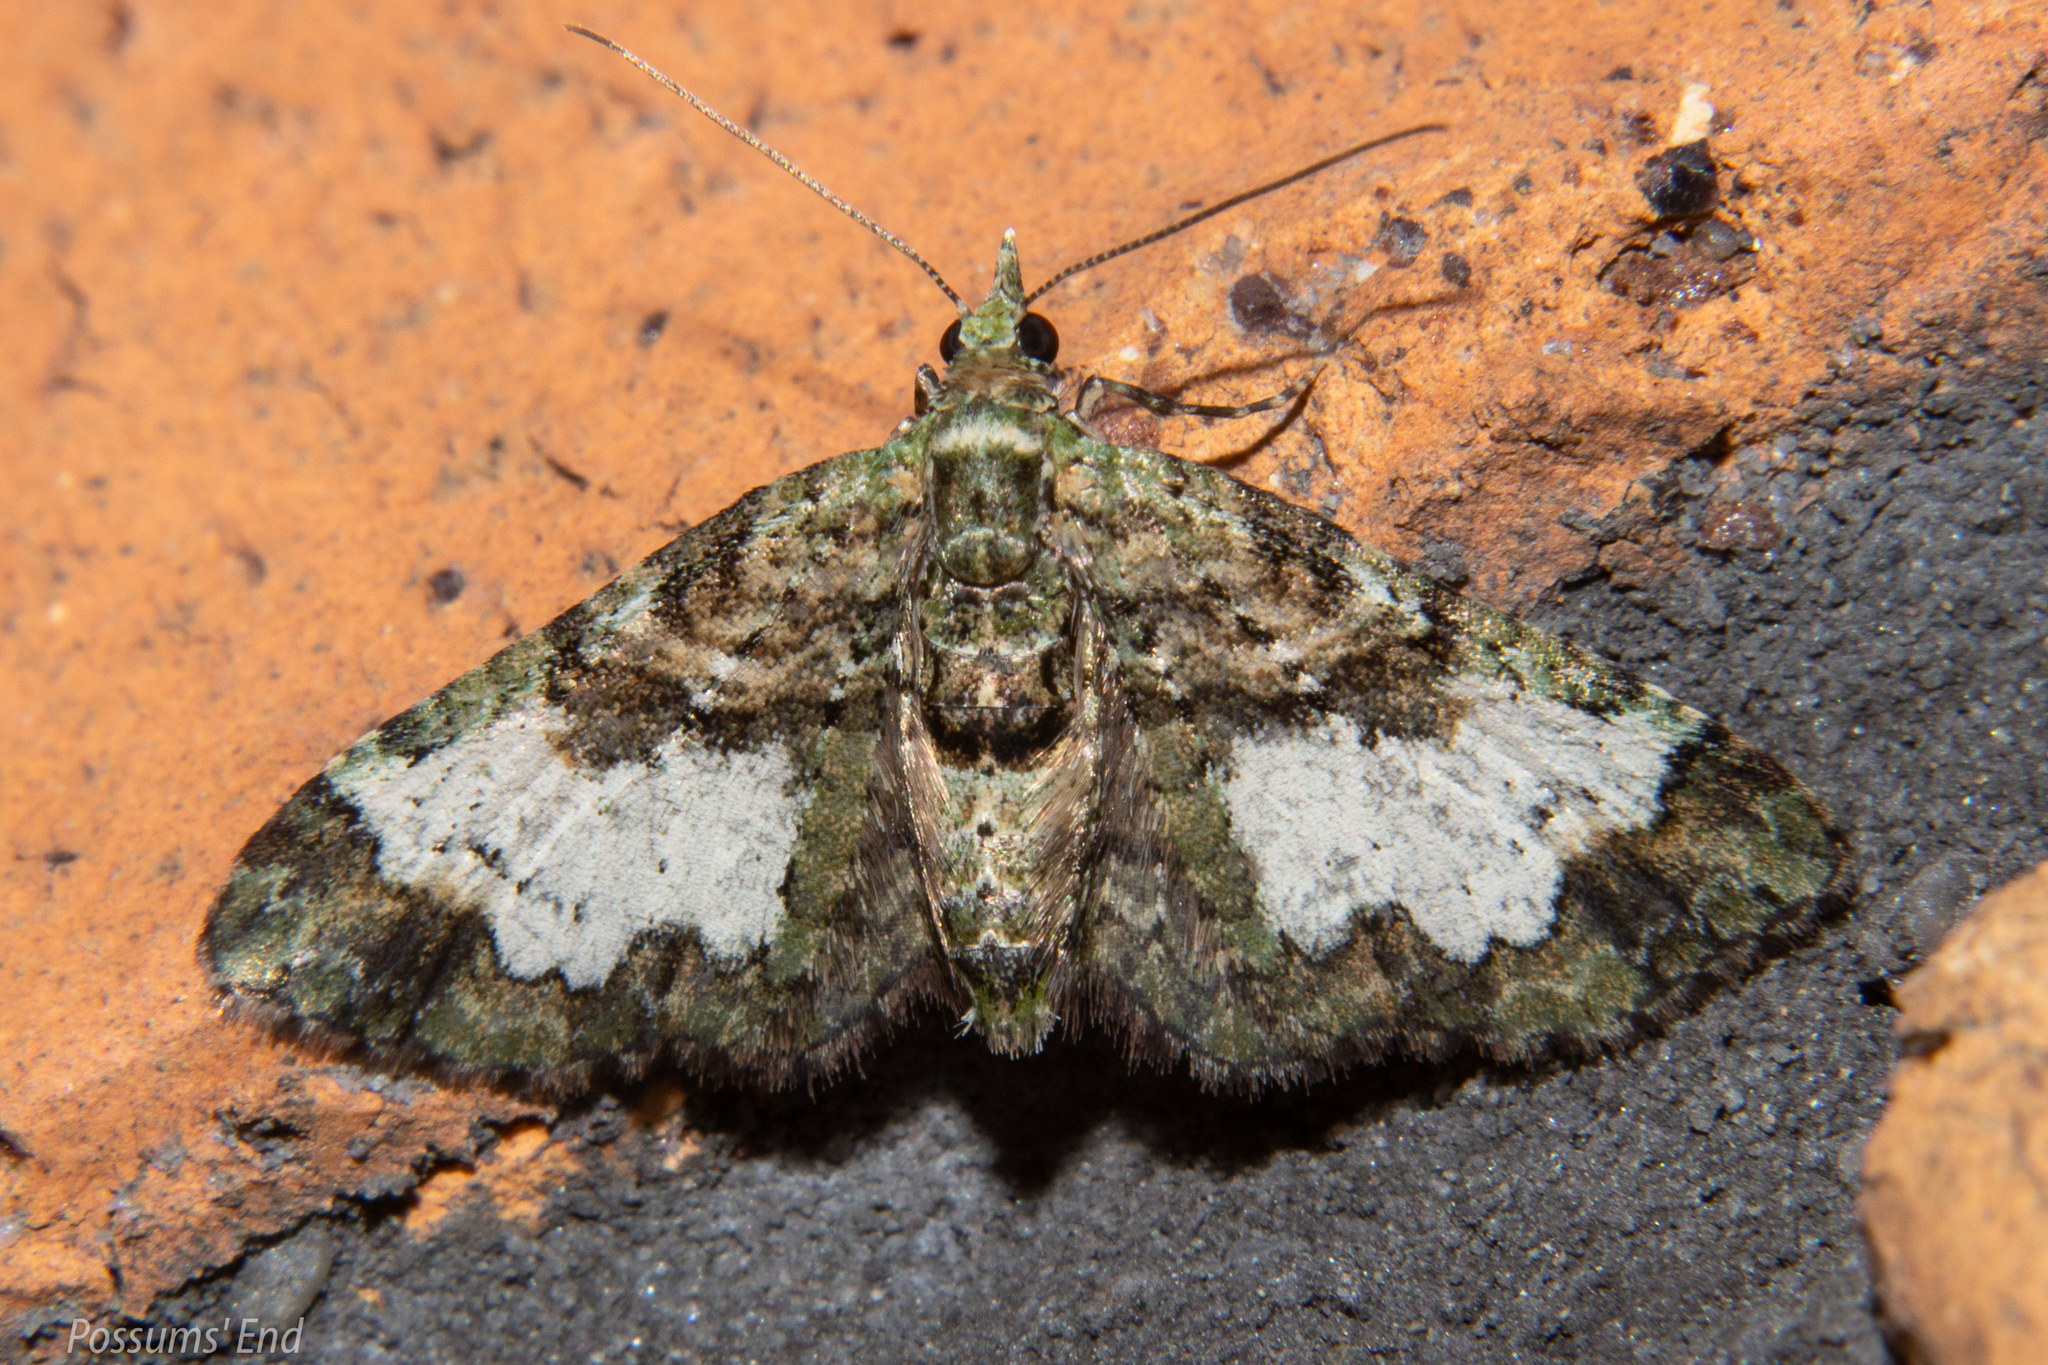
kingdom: Animalia
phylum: Arthropoda
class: Insecta
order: Lepidoptera
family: Geometridae
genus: Idaea
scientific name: Idaea mutanda
